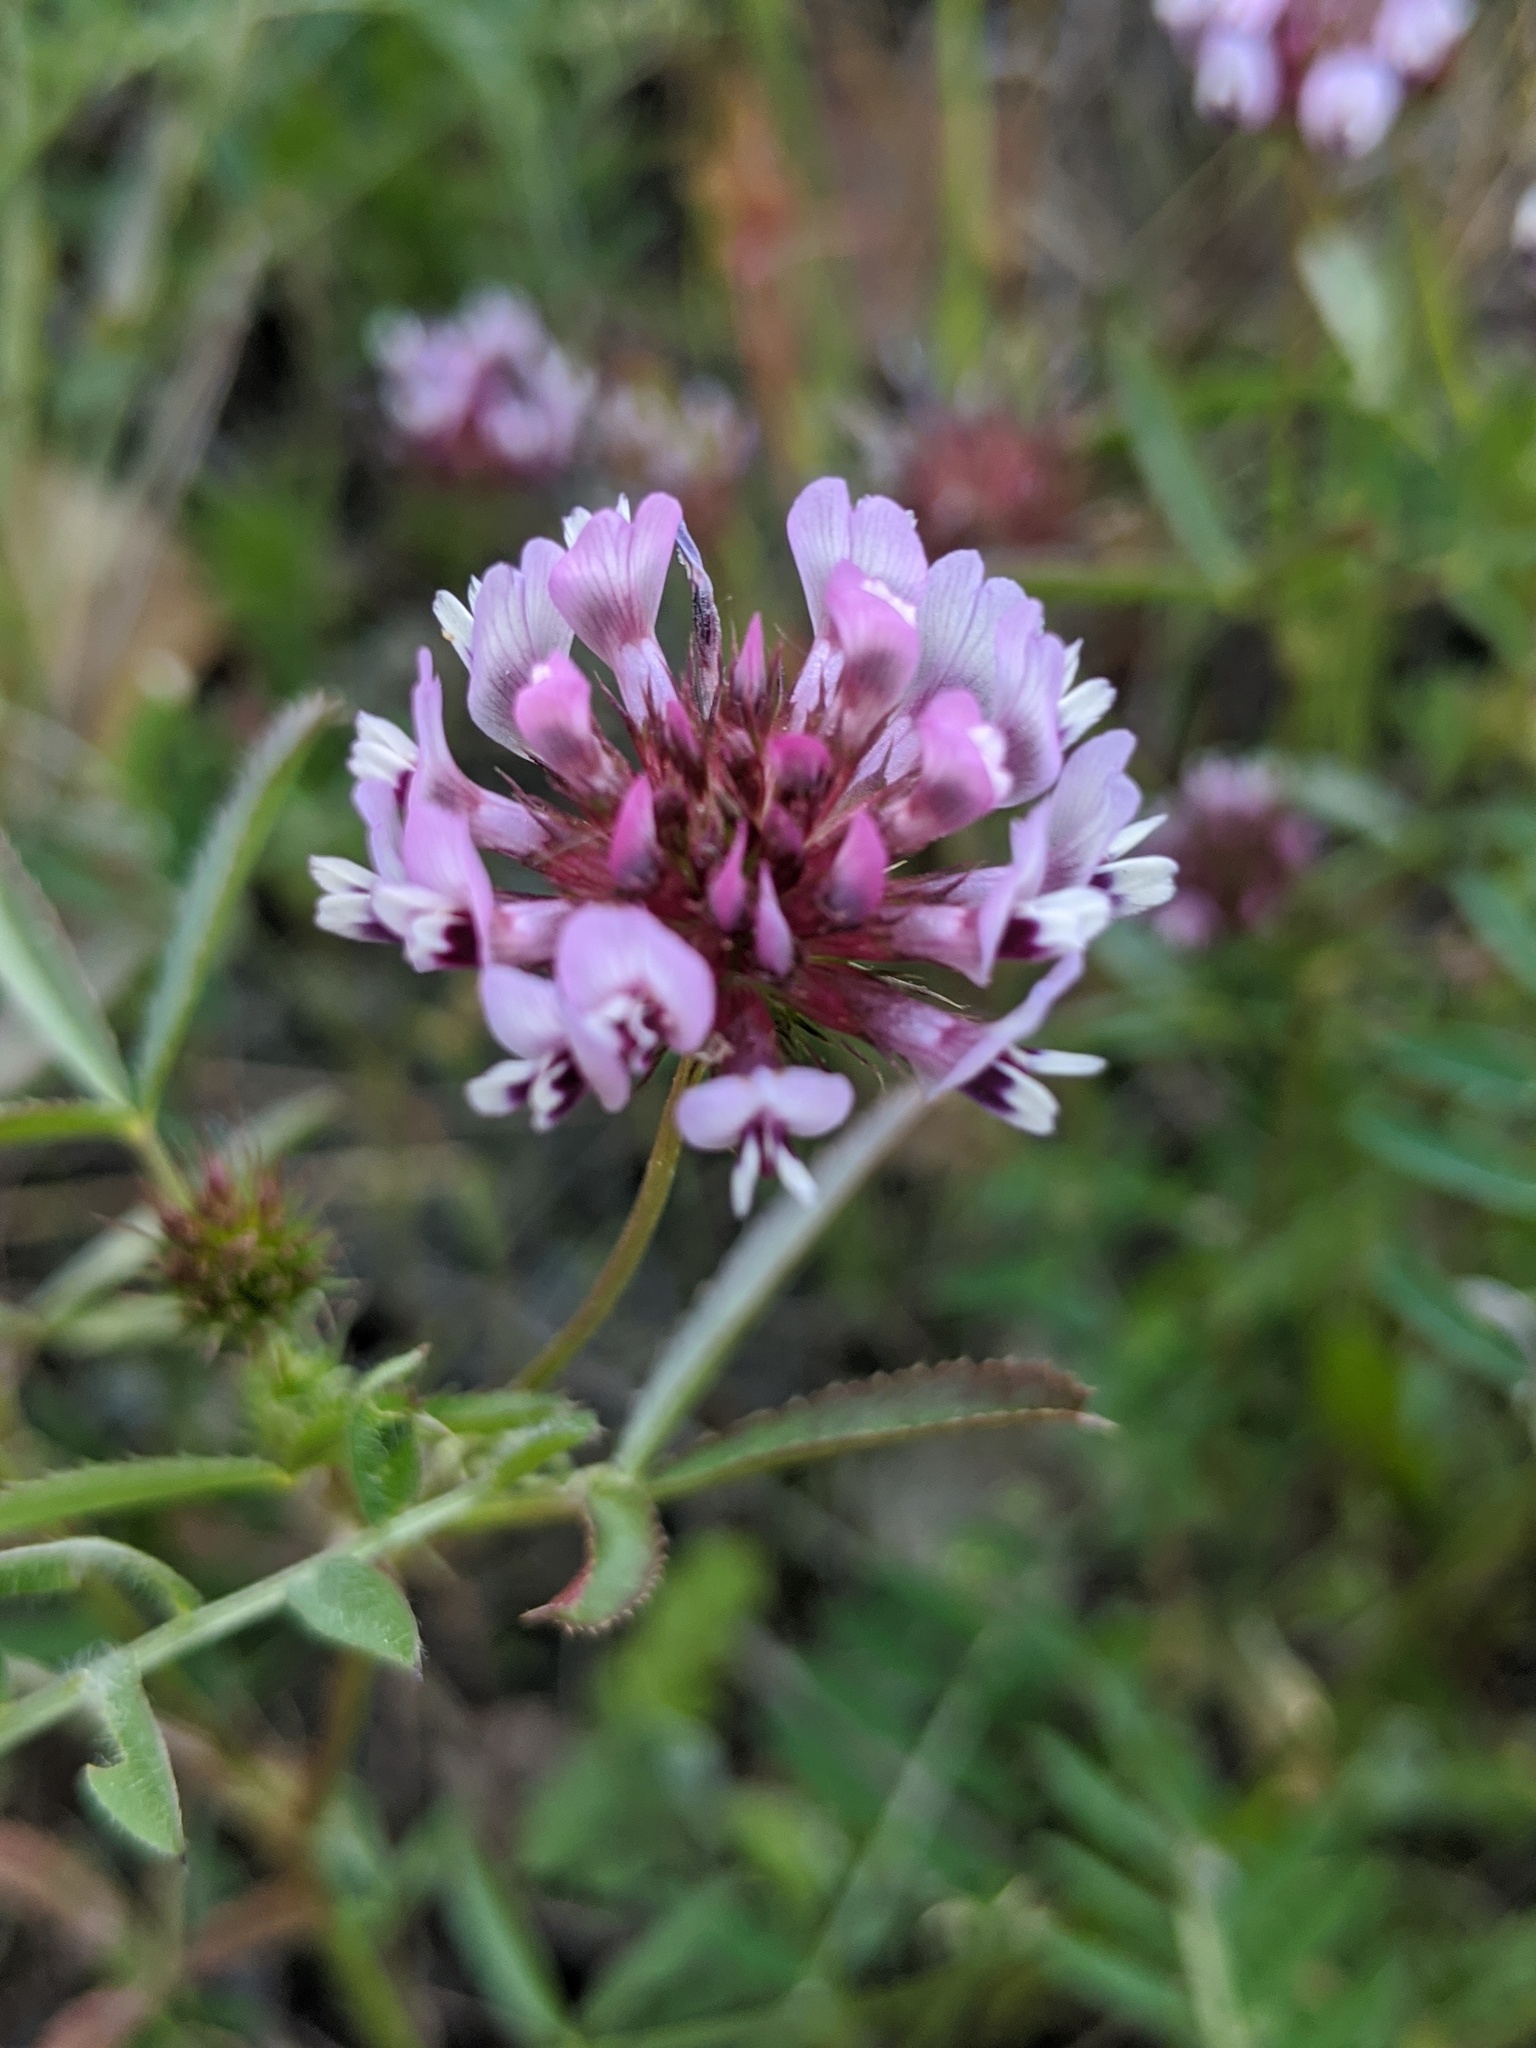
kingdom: Plantae
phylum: Tracheophyta
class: Magnoliopsida
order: Fabales
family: Fabaceae
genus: Trifolium
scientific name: Trifolium willdenovii
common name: Tomcat clover
